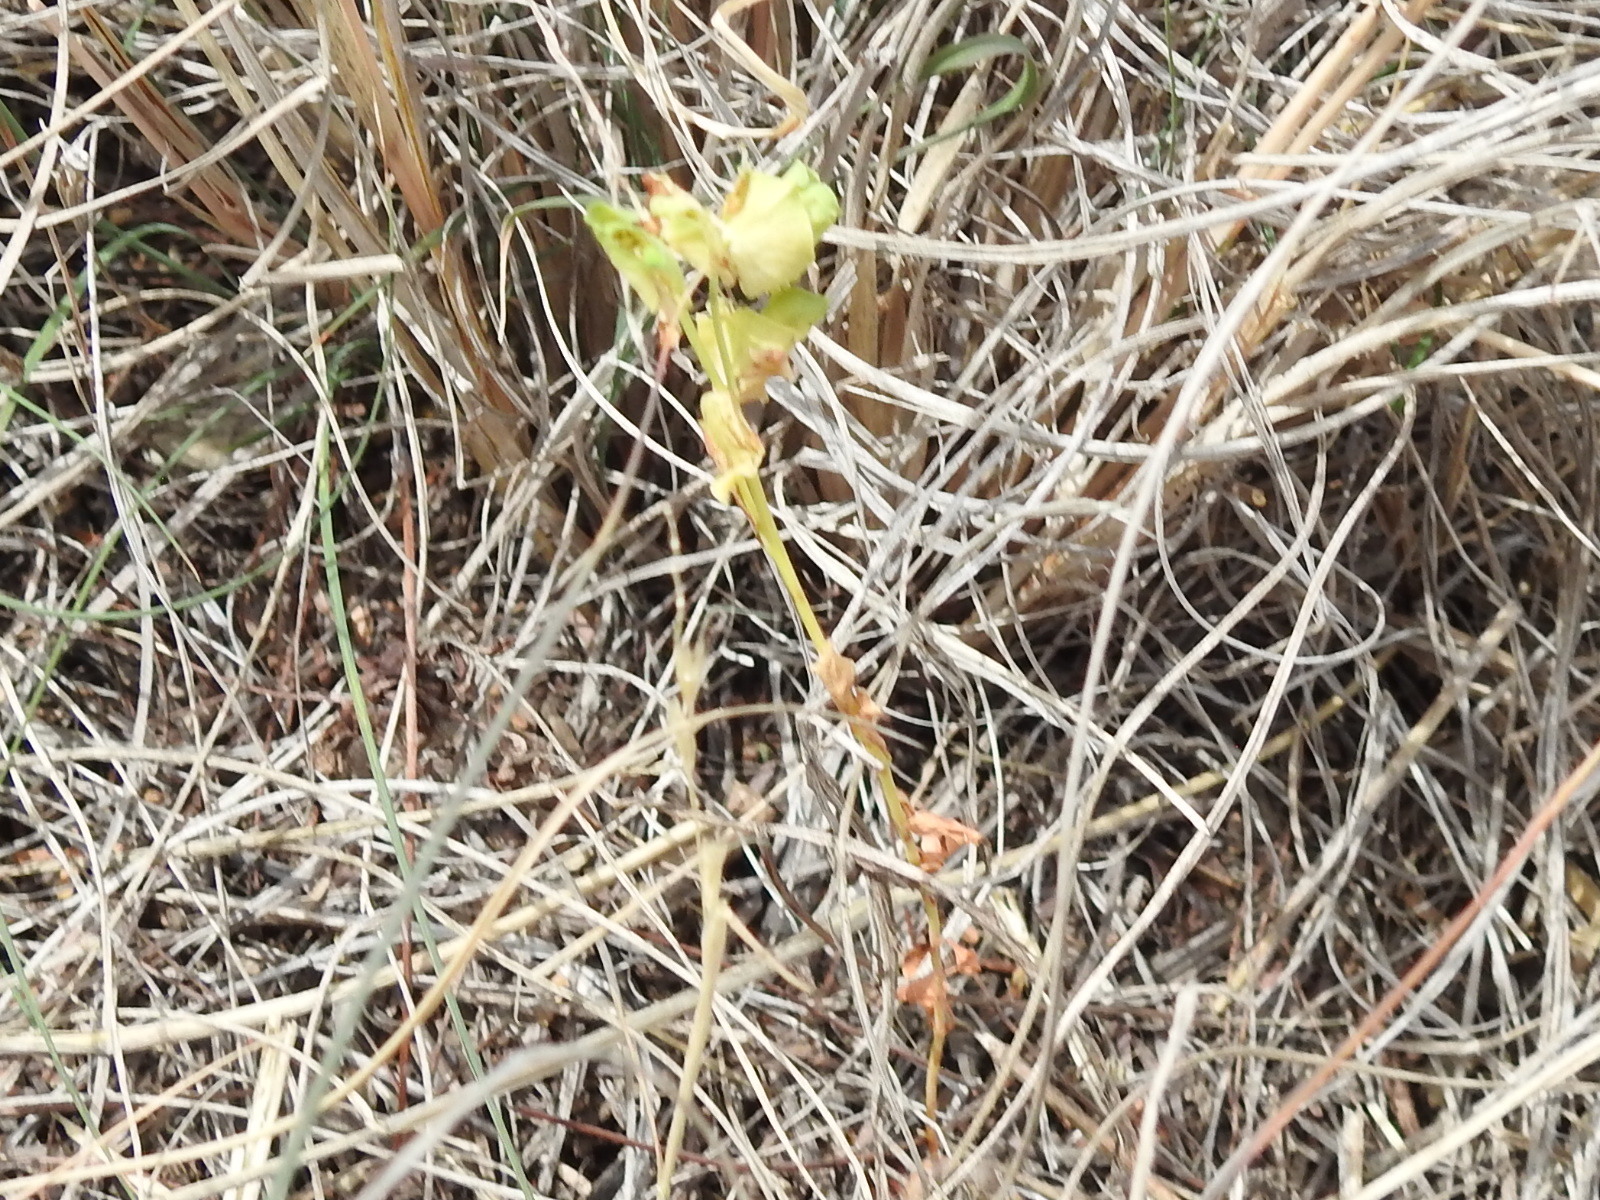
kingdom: Plantae
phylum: Tracheophyta
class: Magnoliopsida
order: Malpighiales
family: Euphorbiaceae
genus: Euphorbia
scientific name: Euphorbia longicruris
